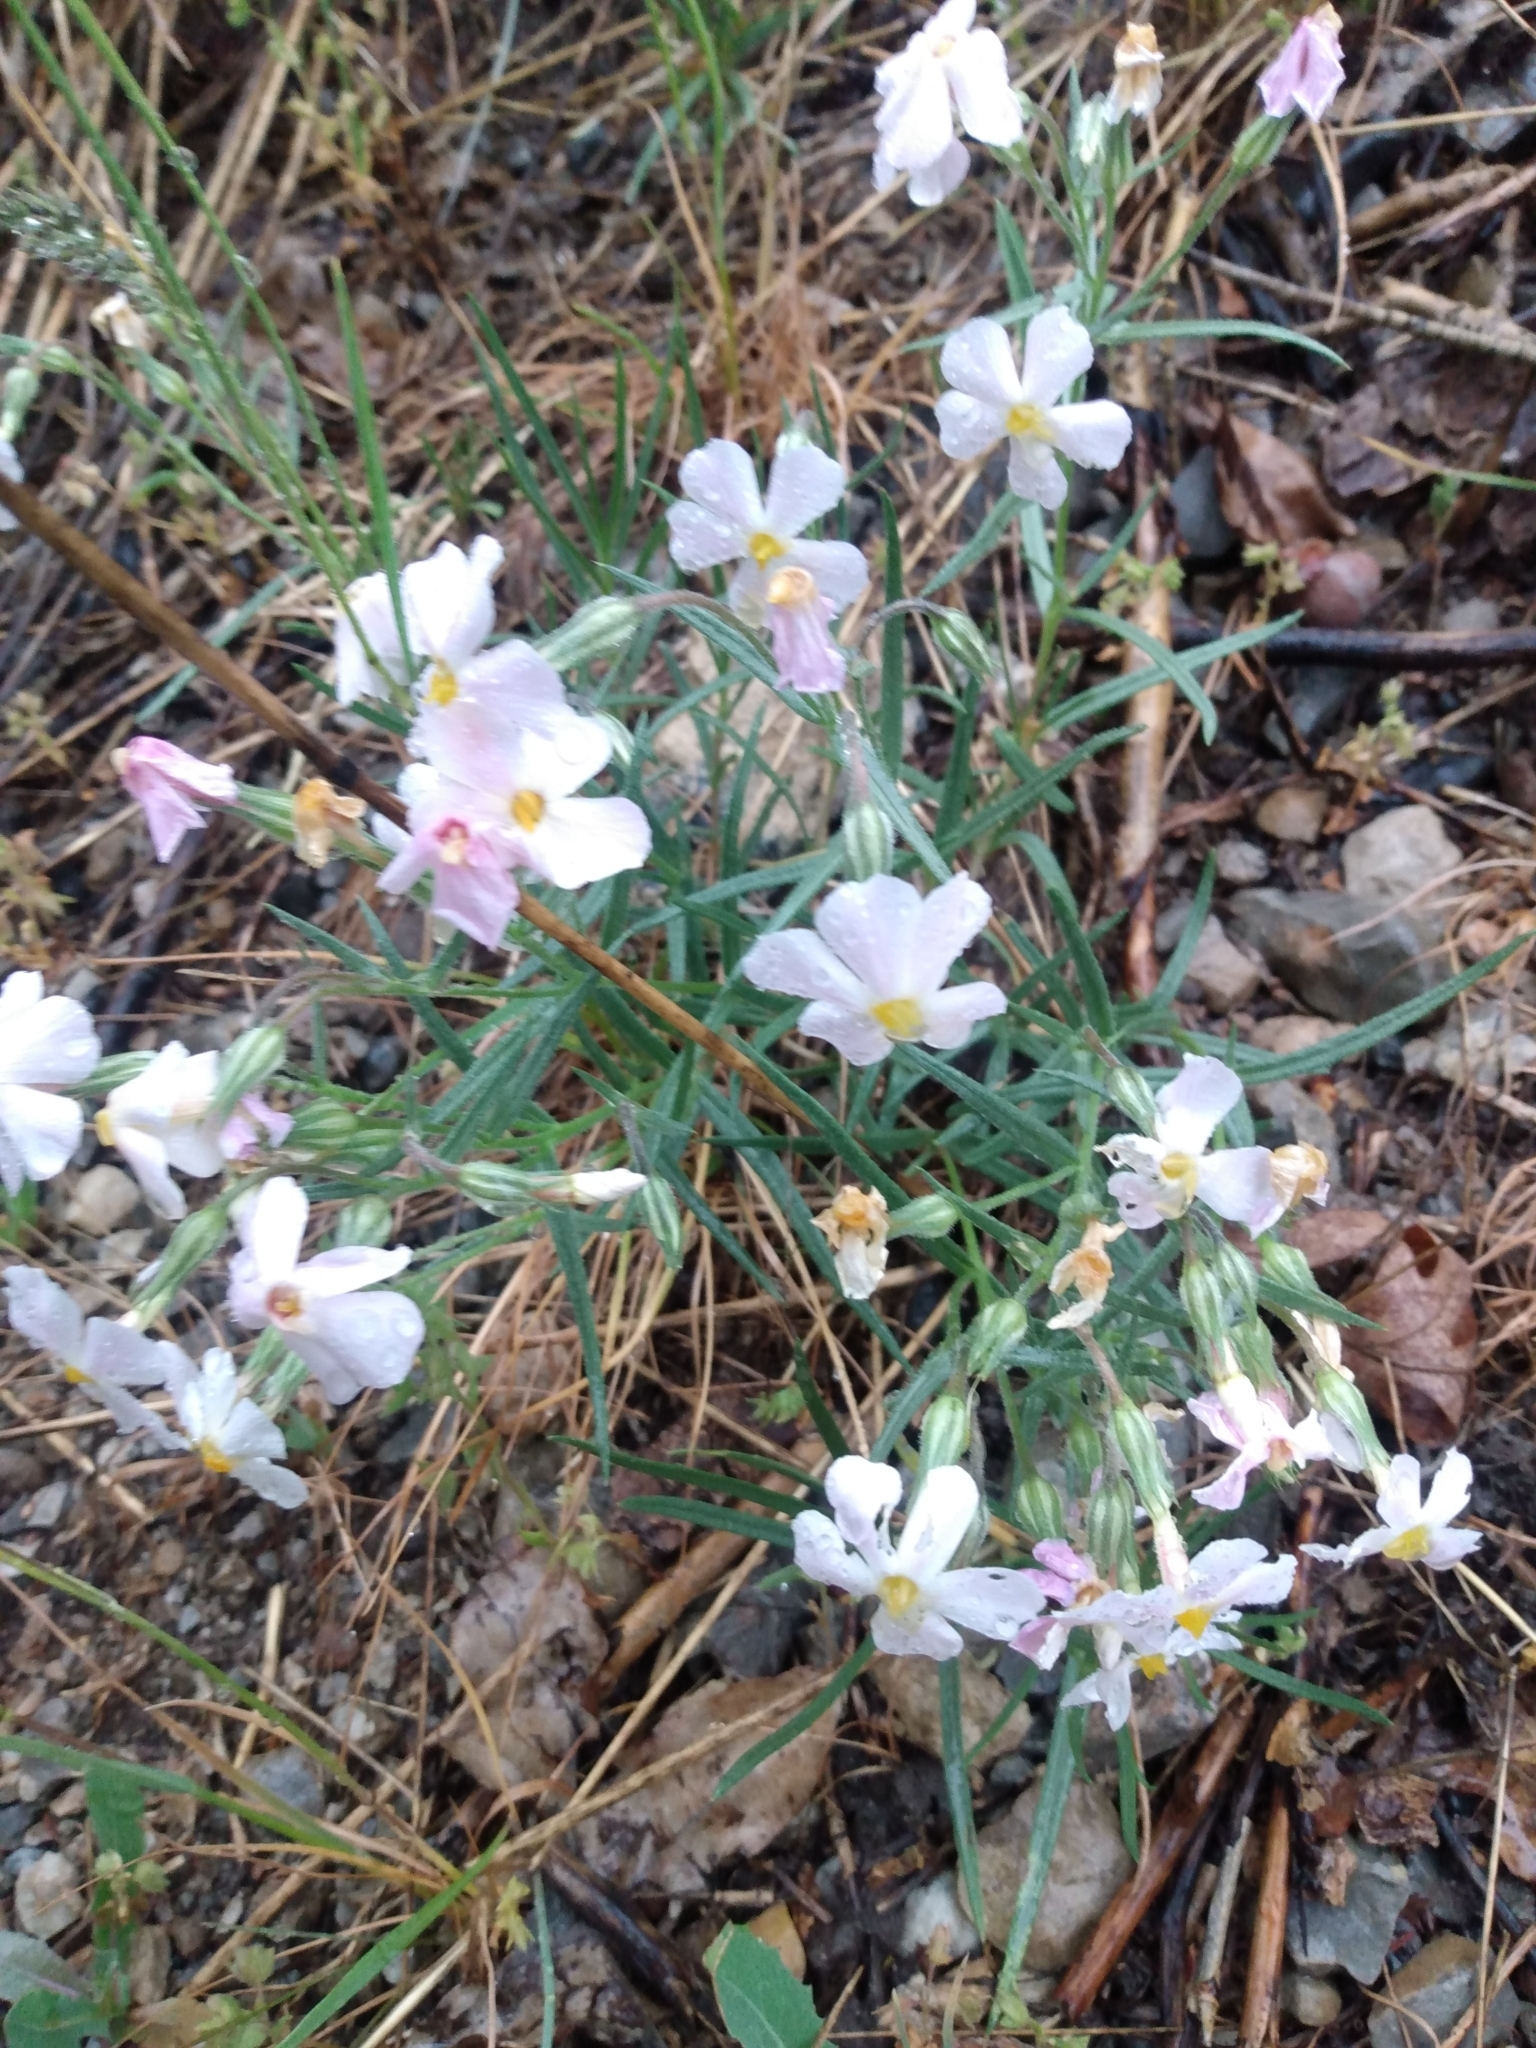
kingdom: Plantae
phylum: Tracheophyta
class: Magnoliopsida
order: Ericales
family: Polemoniaceae
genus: Phlox
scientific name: Phlox longifolia
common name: Longleaf phlox
